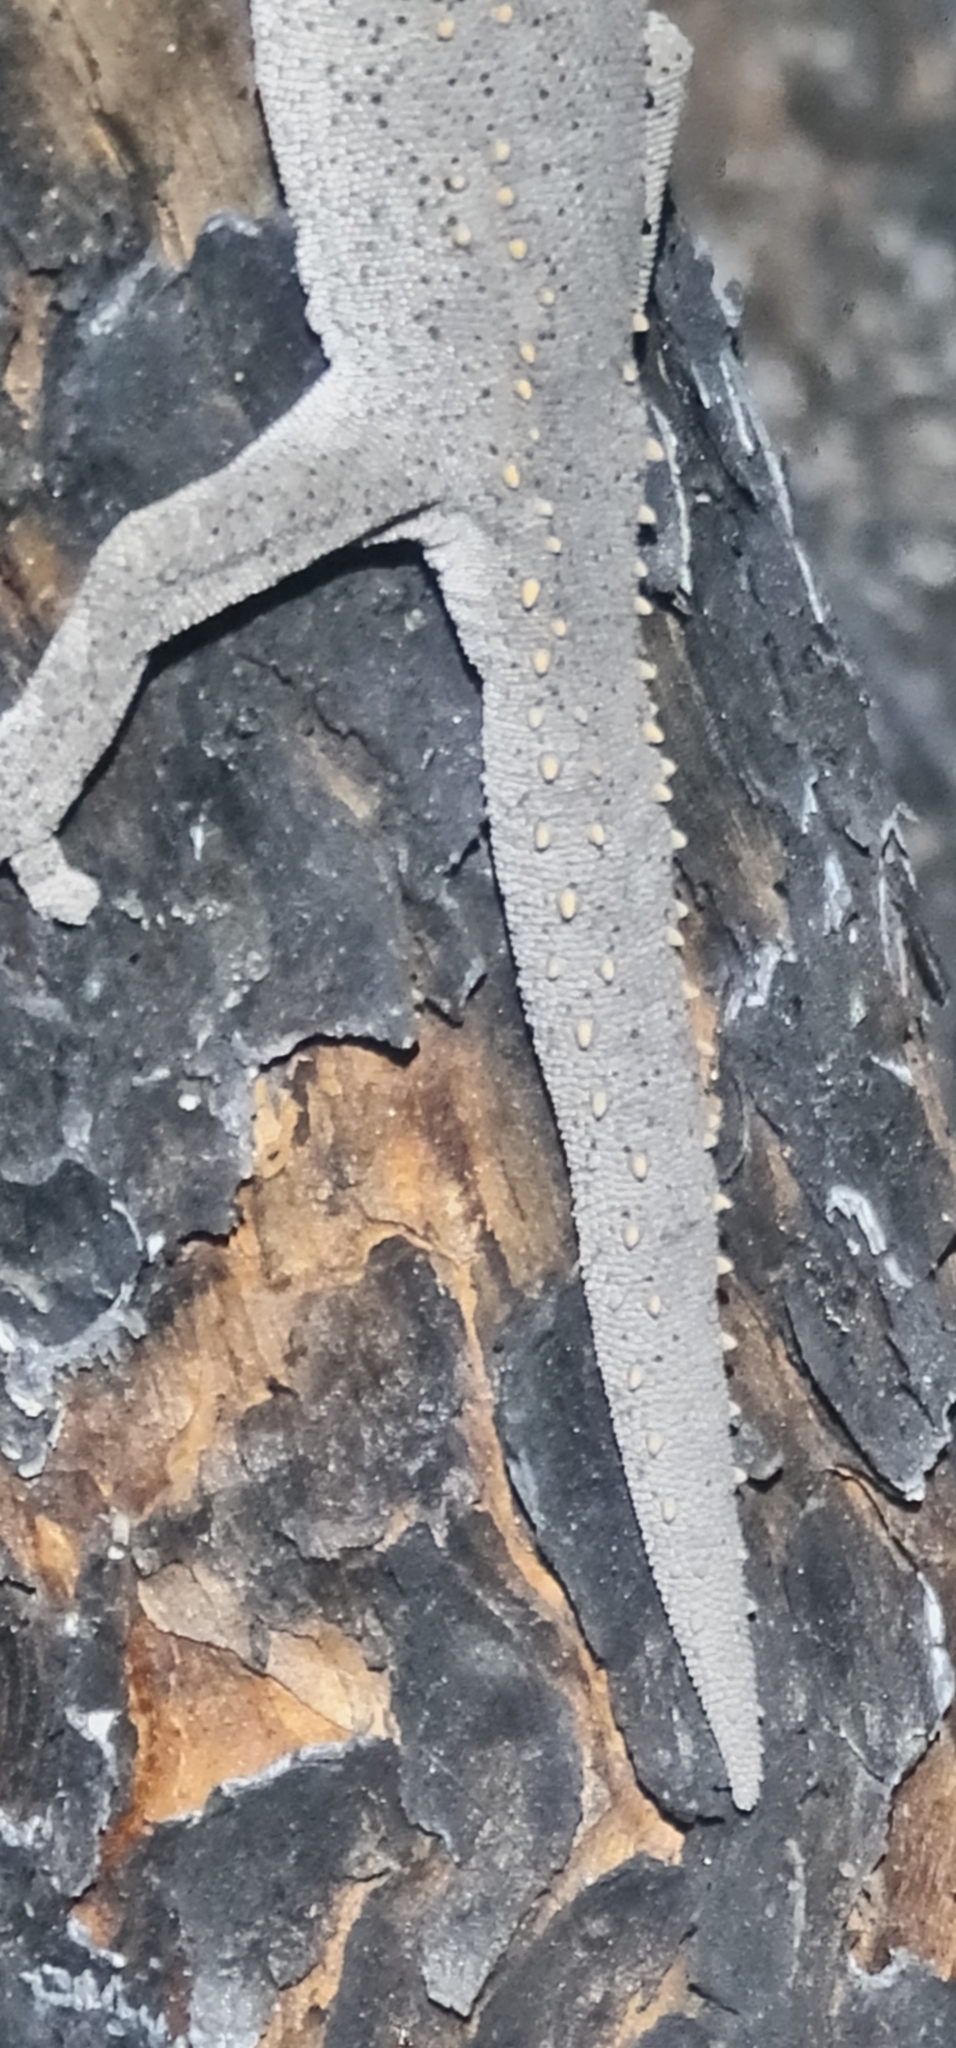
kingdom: Animalia
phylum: Chordata
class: Squamata
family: Diplodactylidae
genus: Strophurus
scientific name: Strophurus williamsi
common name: Eastern spiny-tailed gecko
